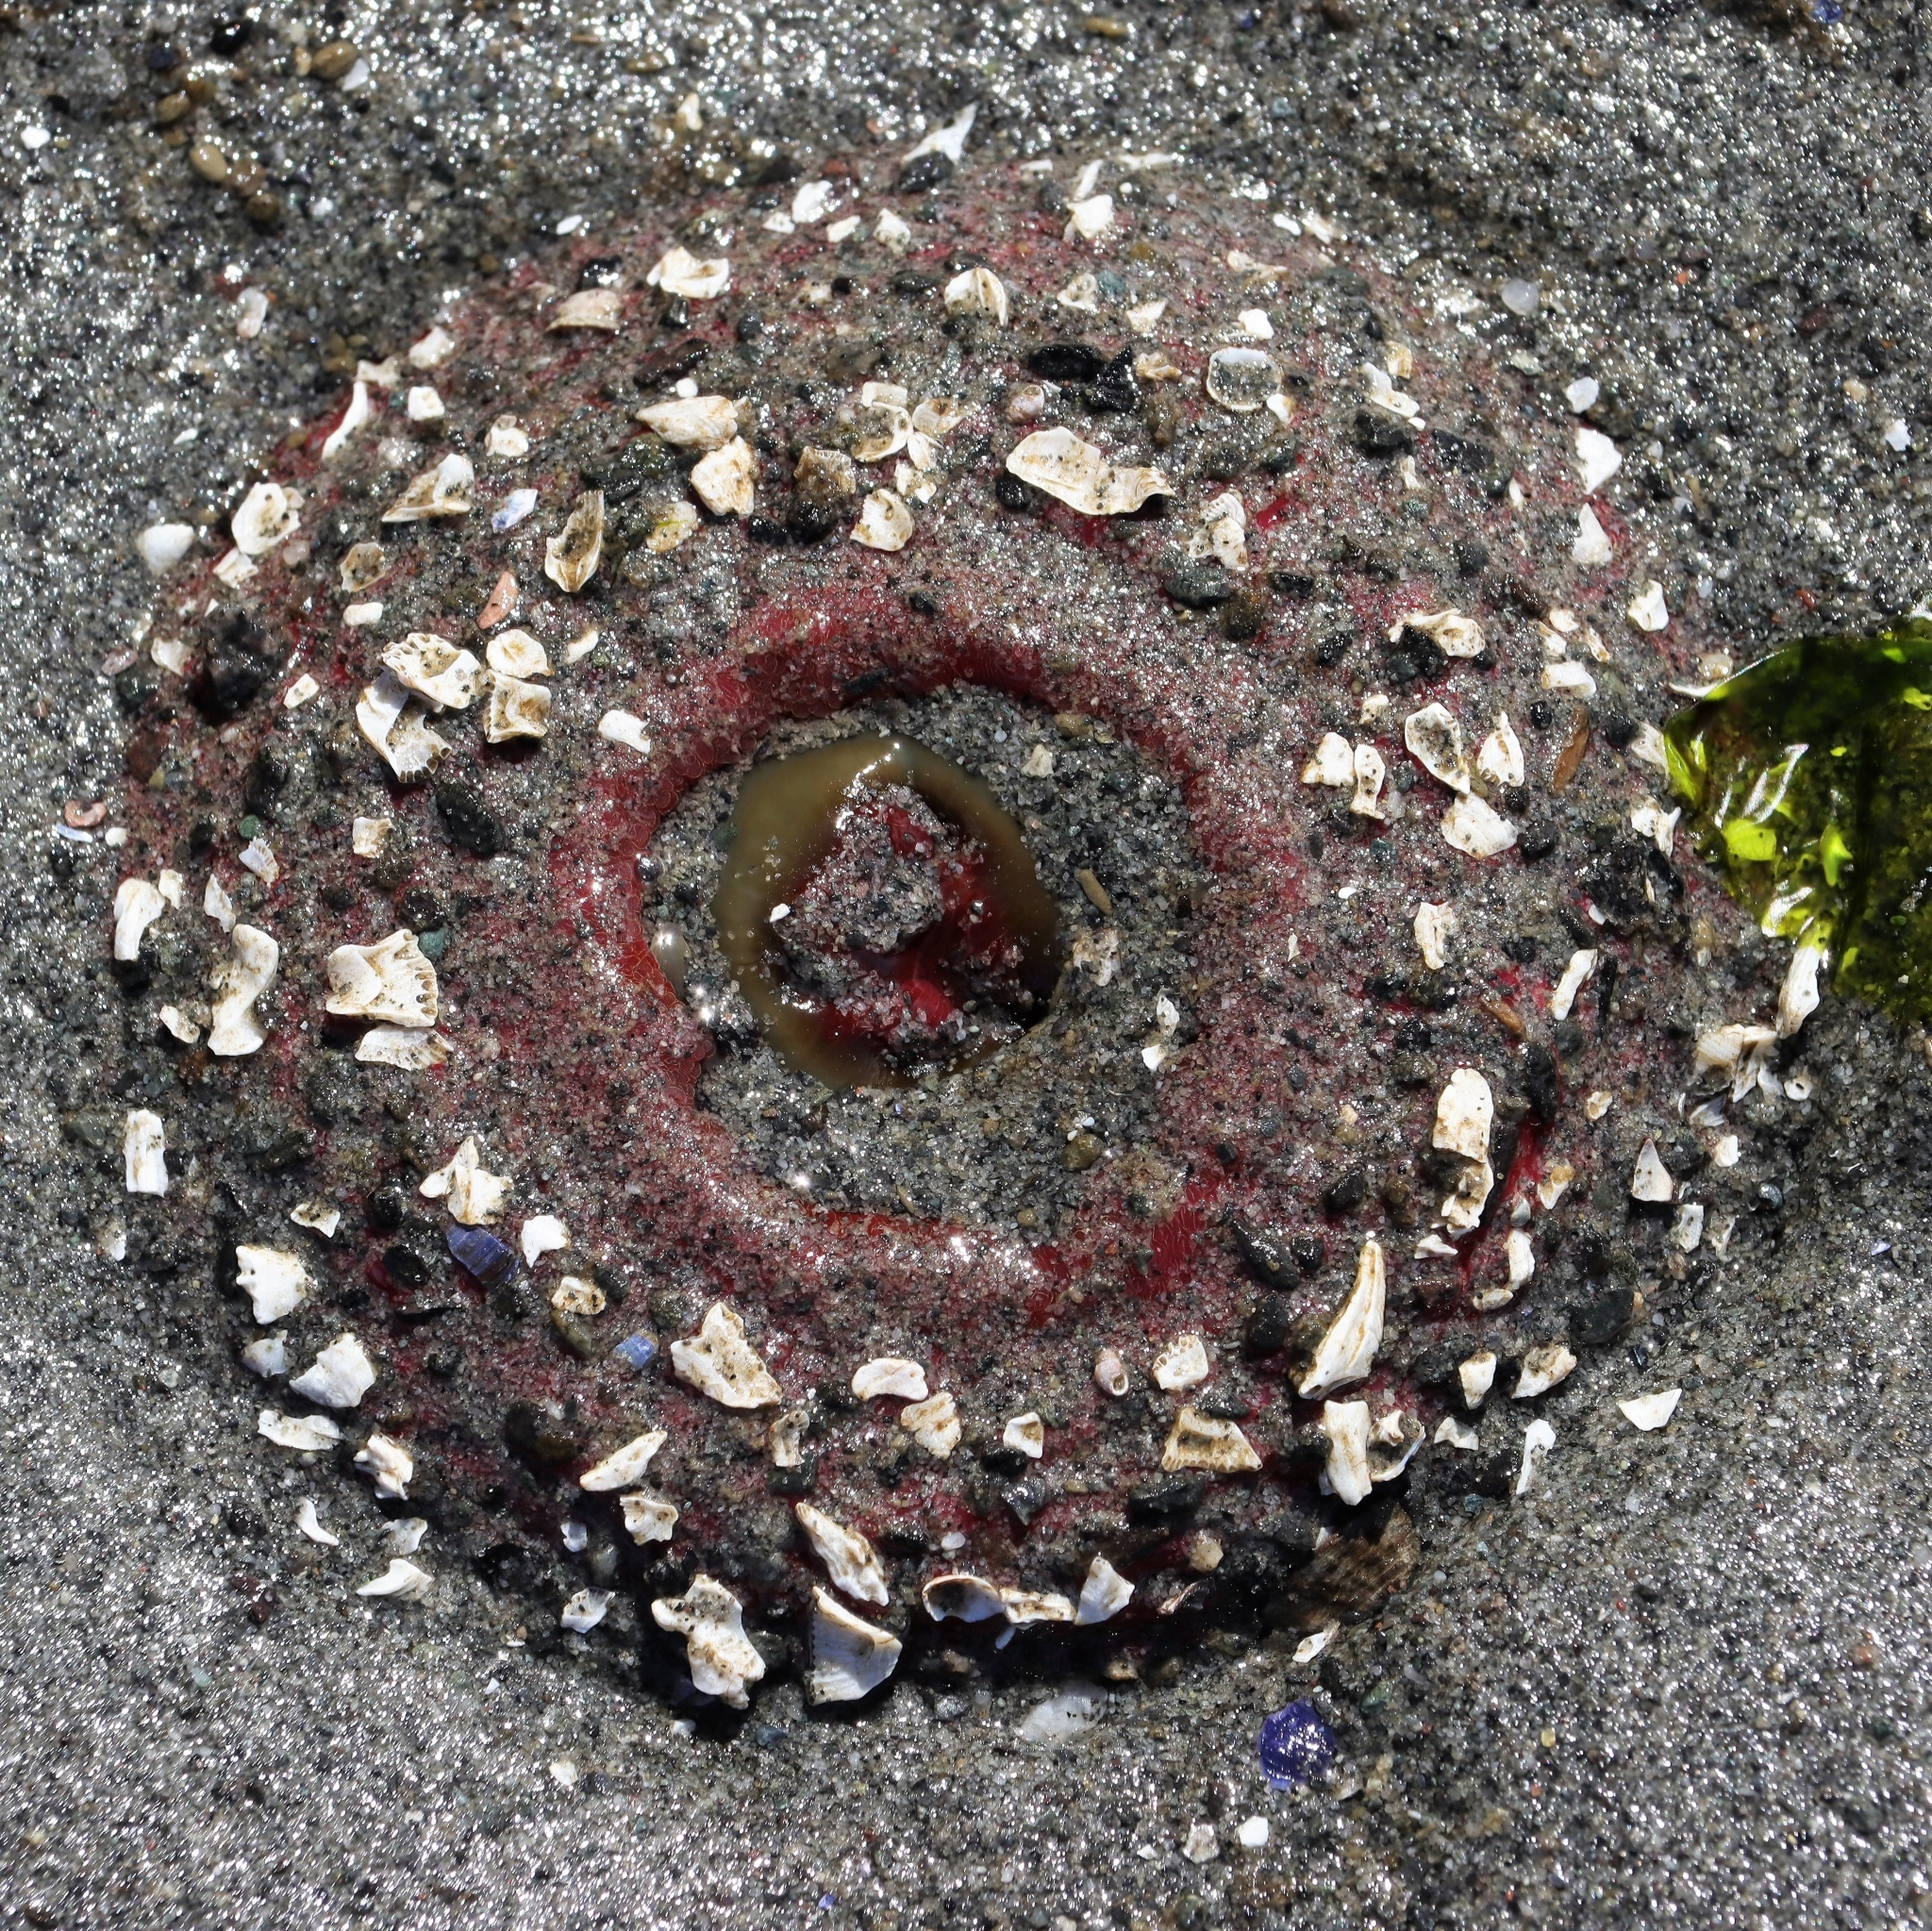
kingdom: Animalia
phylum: Cnidaria
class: Anthozoa
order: Actiniaria
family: Actiniidae
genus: Urticina
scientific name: Urticina clandestina
